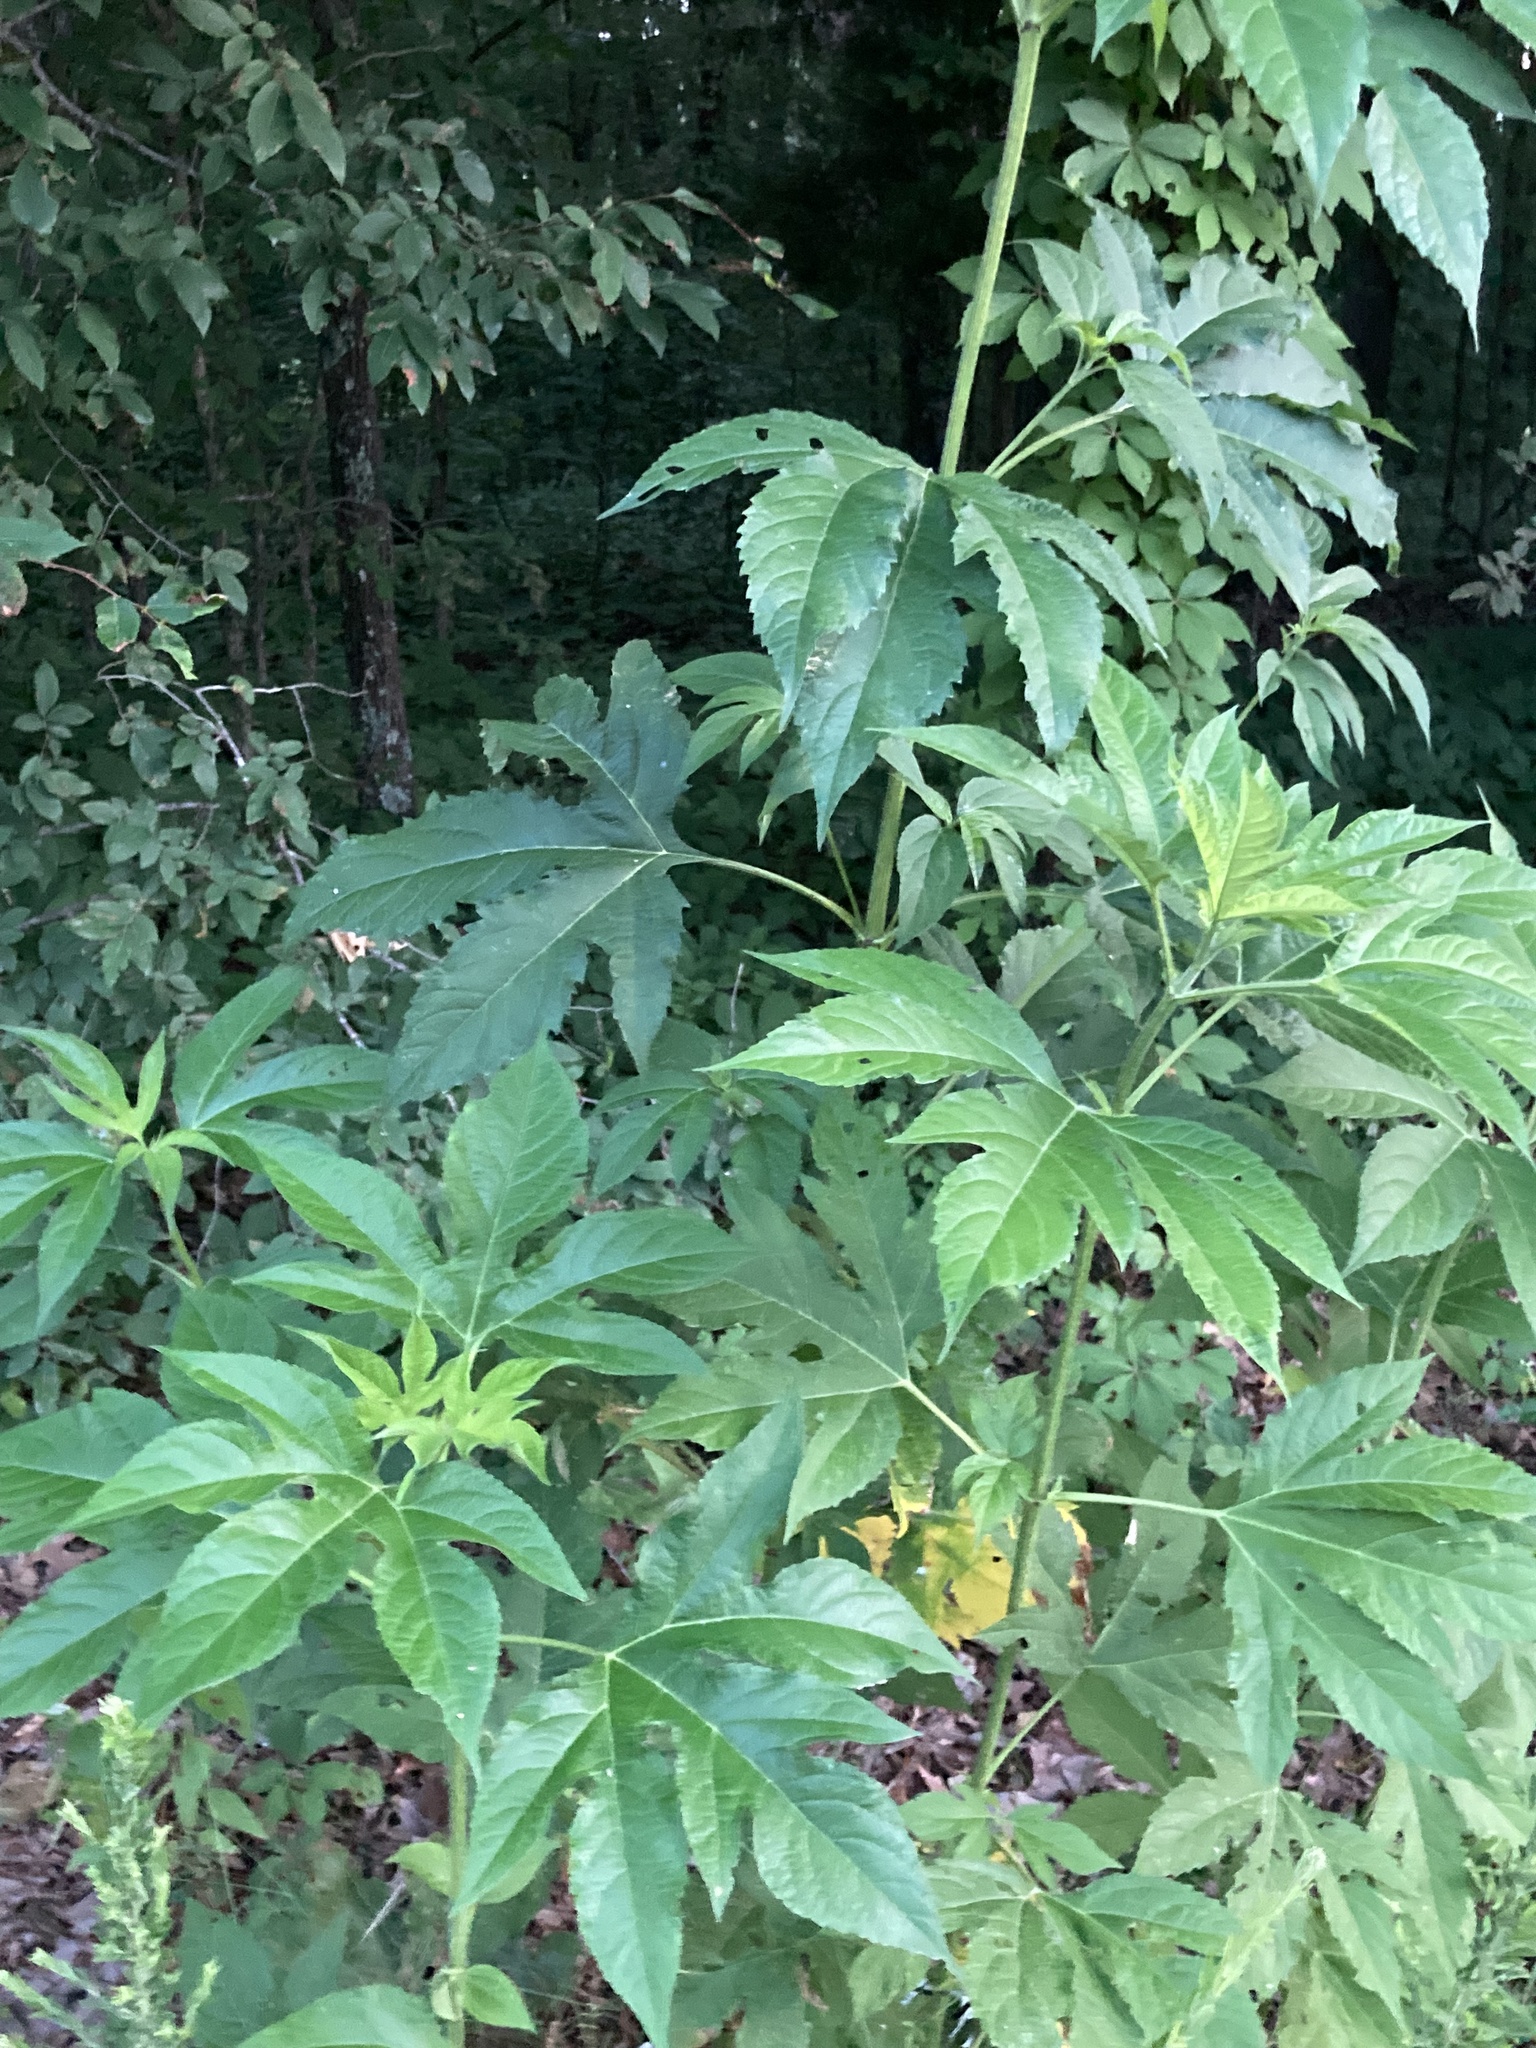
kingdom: Plantae
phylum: Tracheophyta
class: Magnoliopsida
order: Asterales
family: Asteraceae
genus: Ambrosia
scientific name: Ambrosia trifida
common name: Giant ragweed
